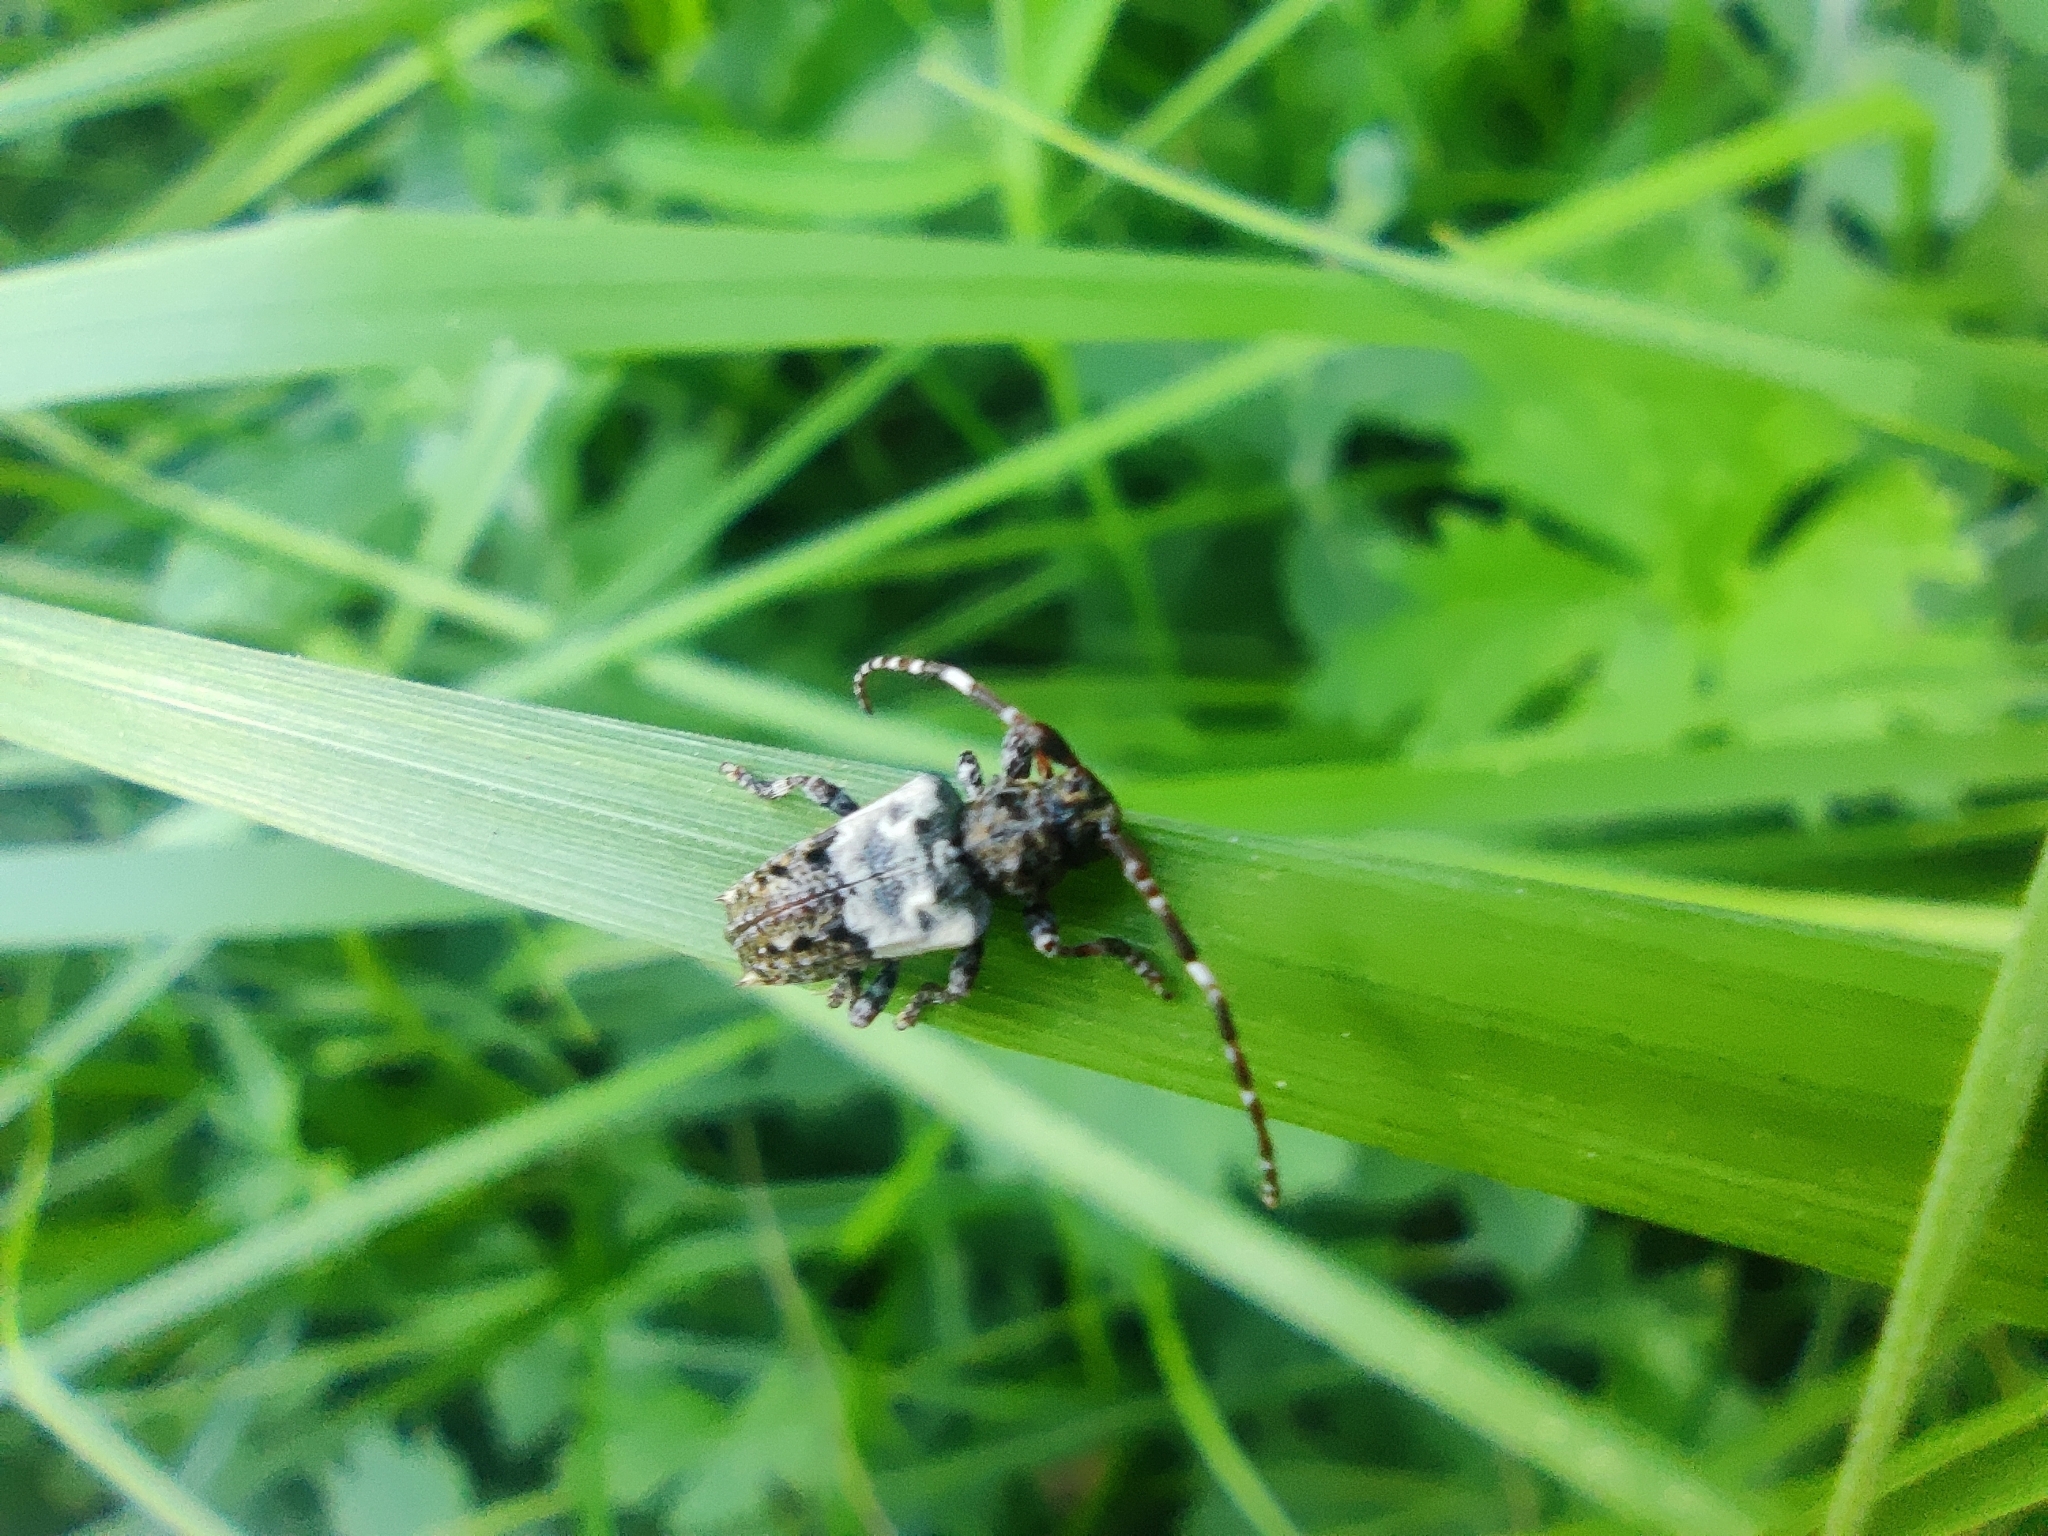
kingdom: Animalia
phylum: Arthropoda
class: Insecta
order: Coleoptera
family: Cerambycidae
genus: Pogonocherus
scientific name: Pogonocherus hispidulus
